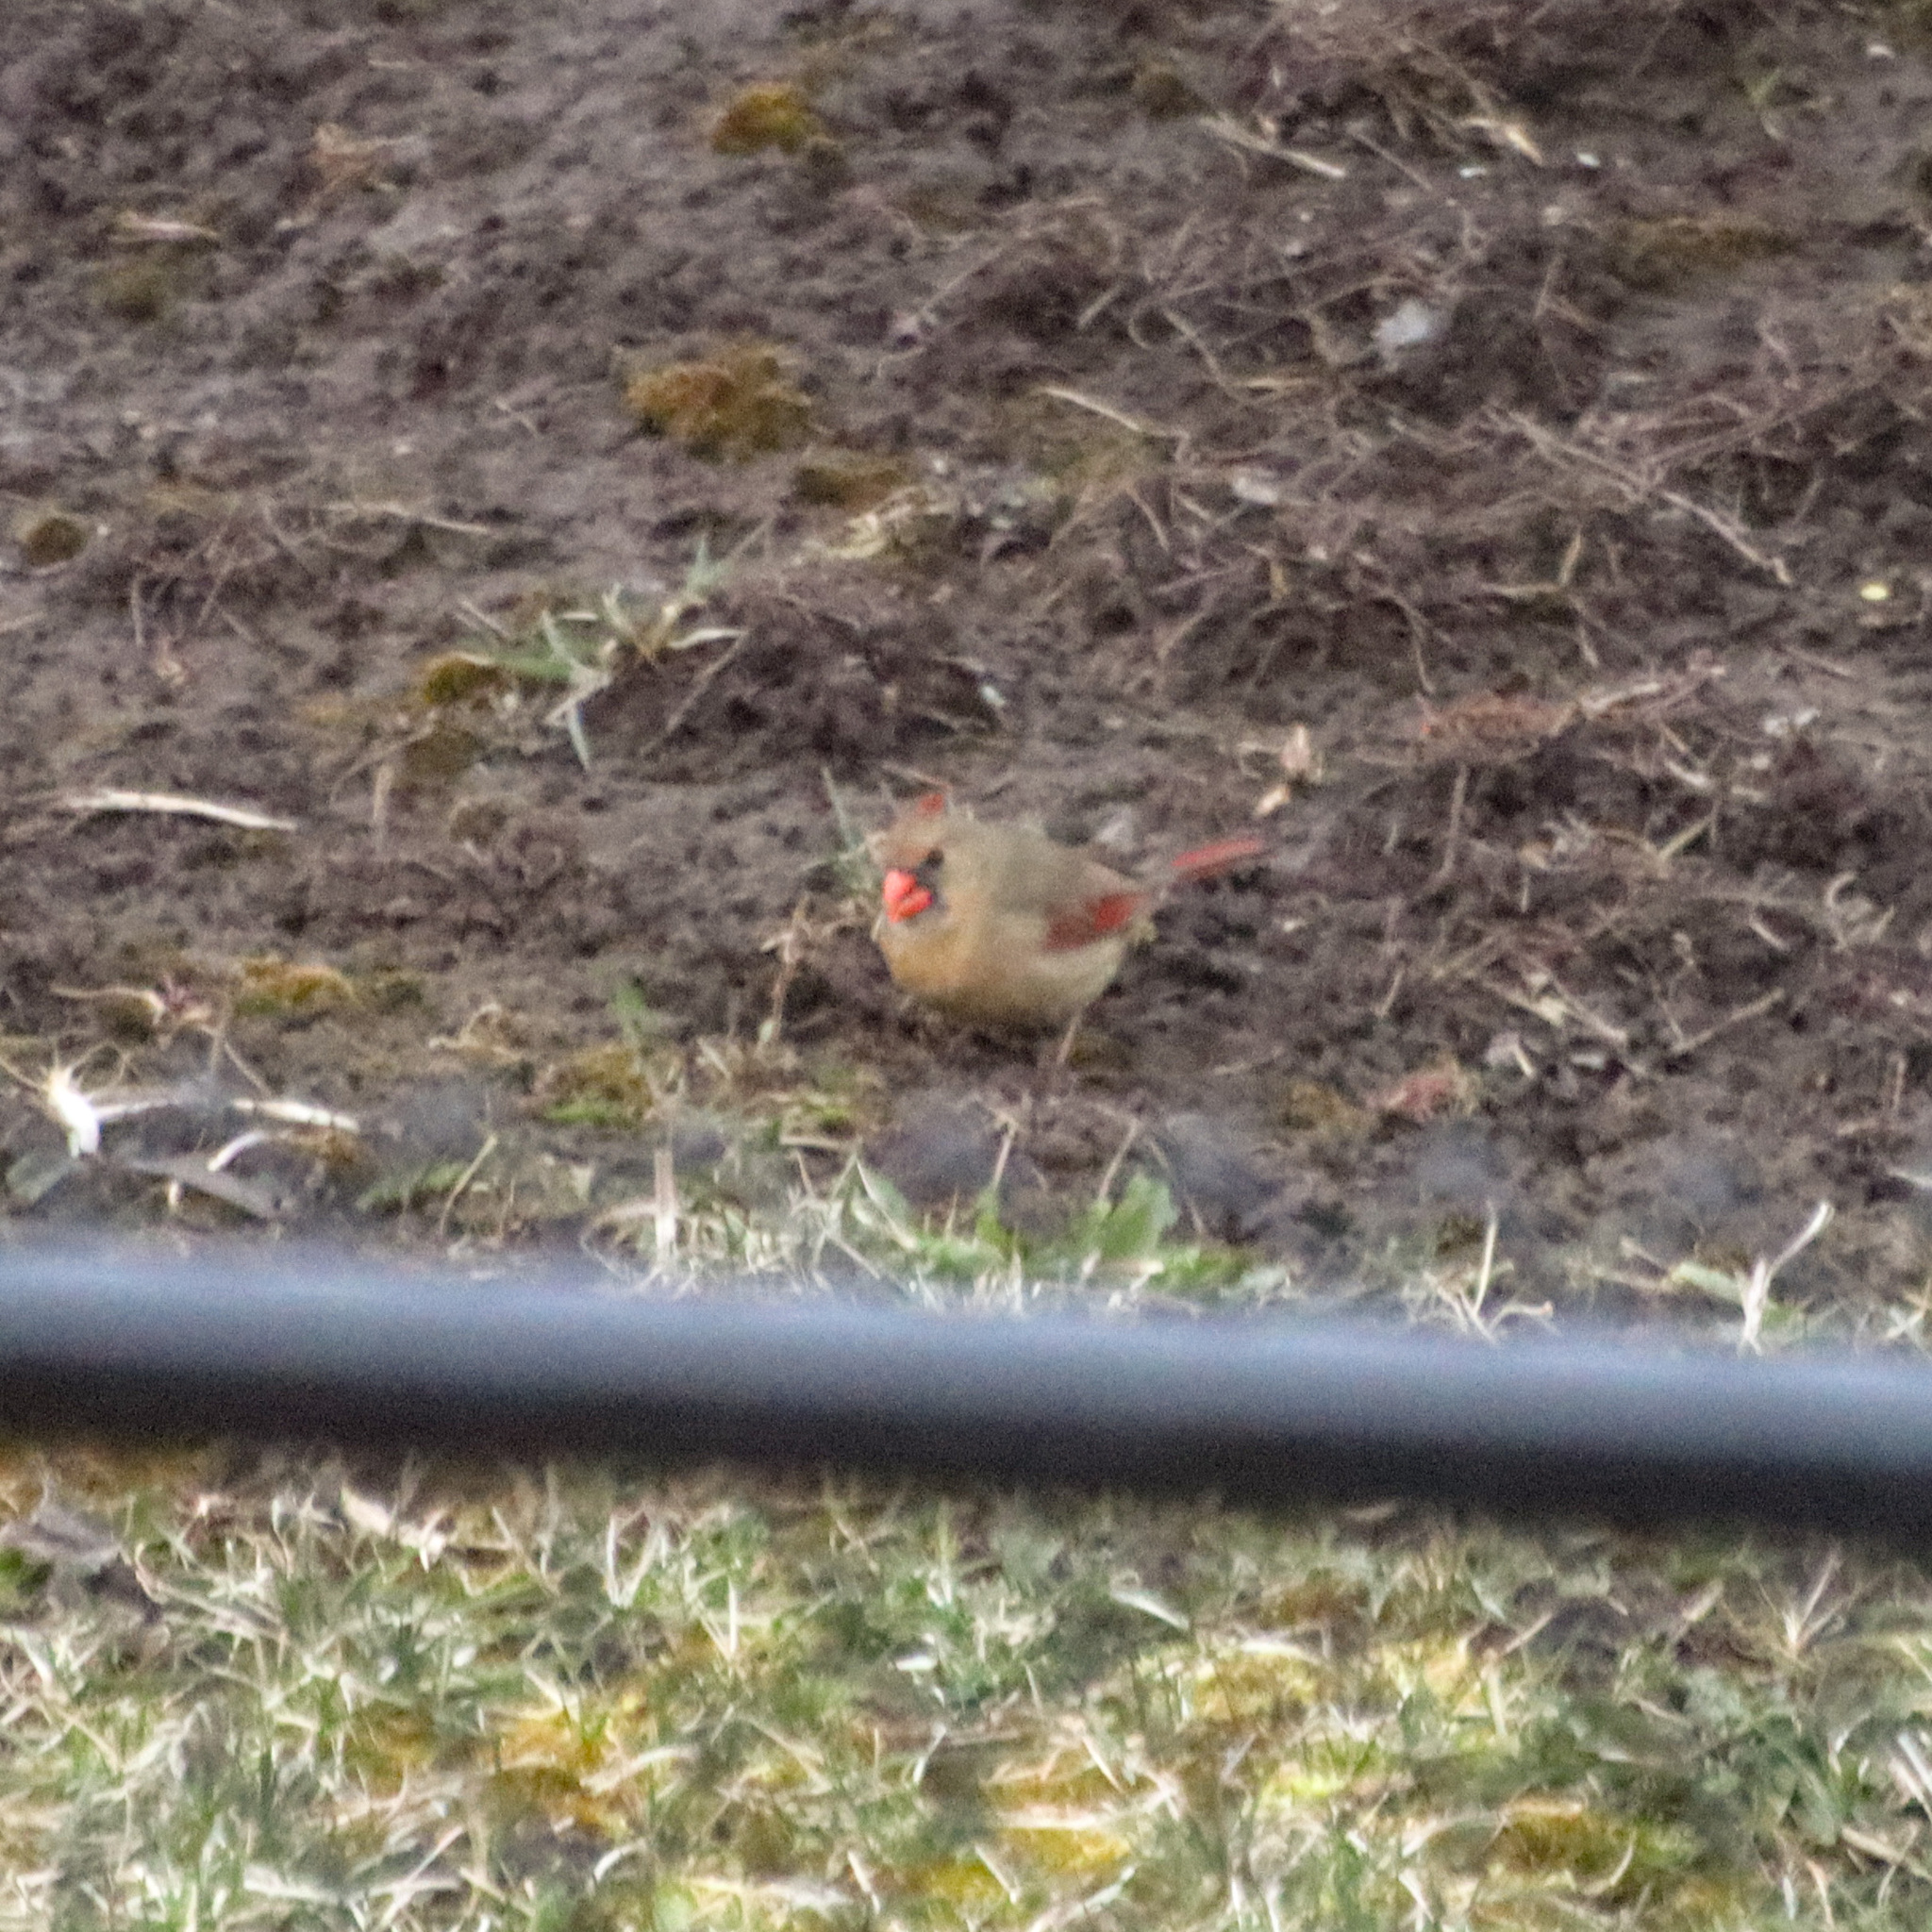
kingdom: Animalia
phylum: Chordata
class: Aves
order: Passeriformes
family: Cardinalidae
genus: Cardinalis
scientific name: Cardinalis cardinalis
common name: Northern cardinal
